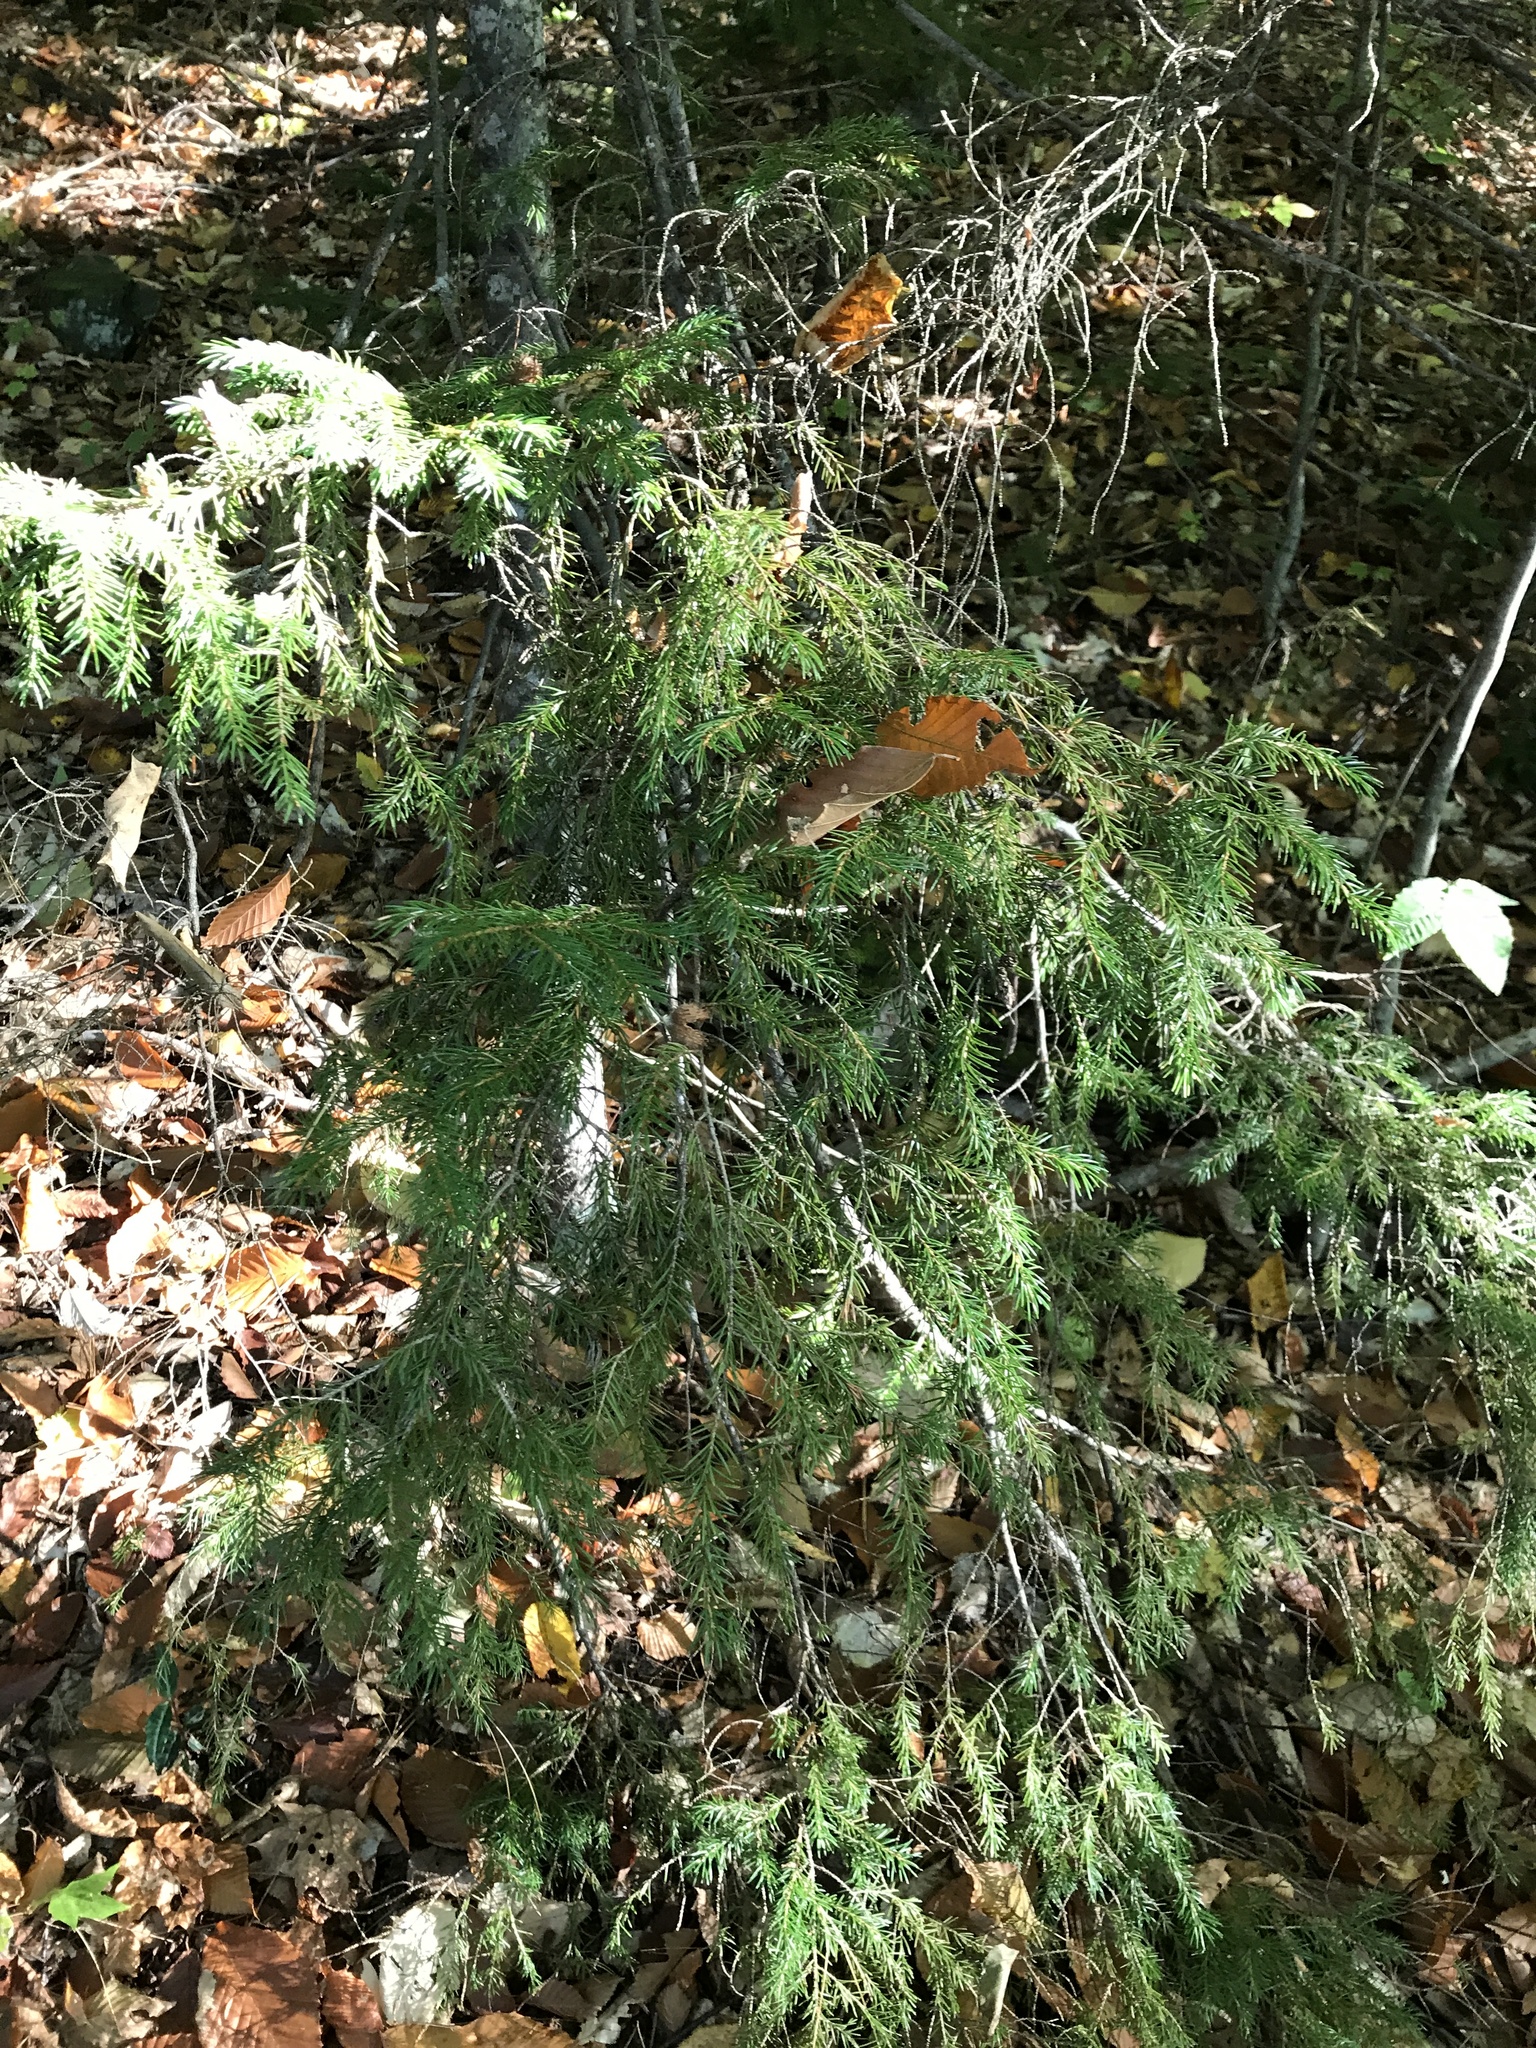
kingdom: Plantae
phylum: Tracheophyta
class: Pinopsida
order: Pinales
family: Pinaceae
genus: Picea
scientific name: Picea rubens
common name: Red spruce
